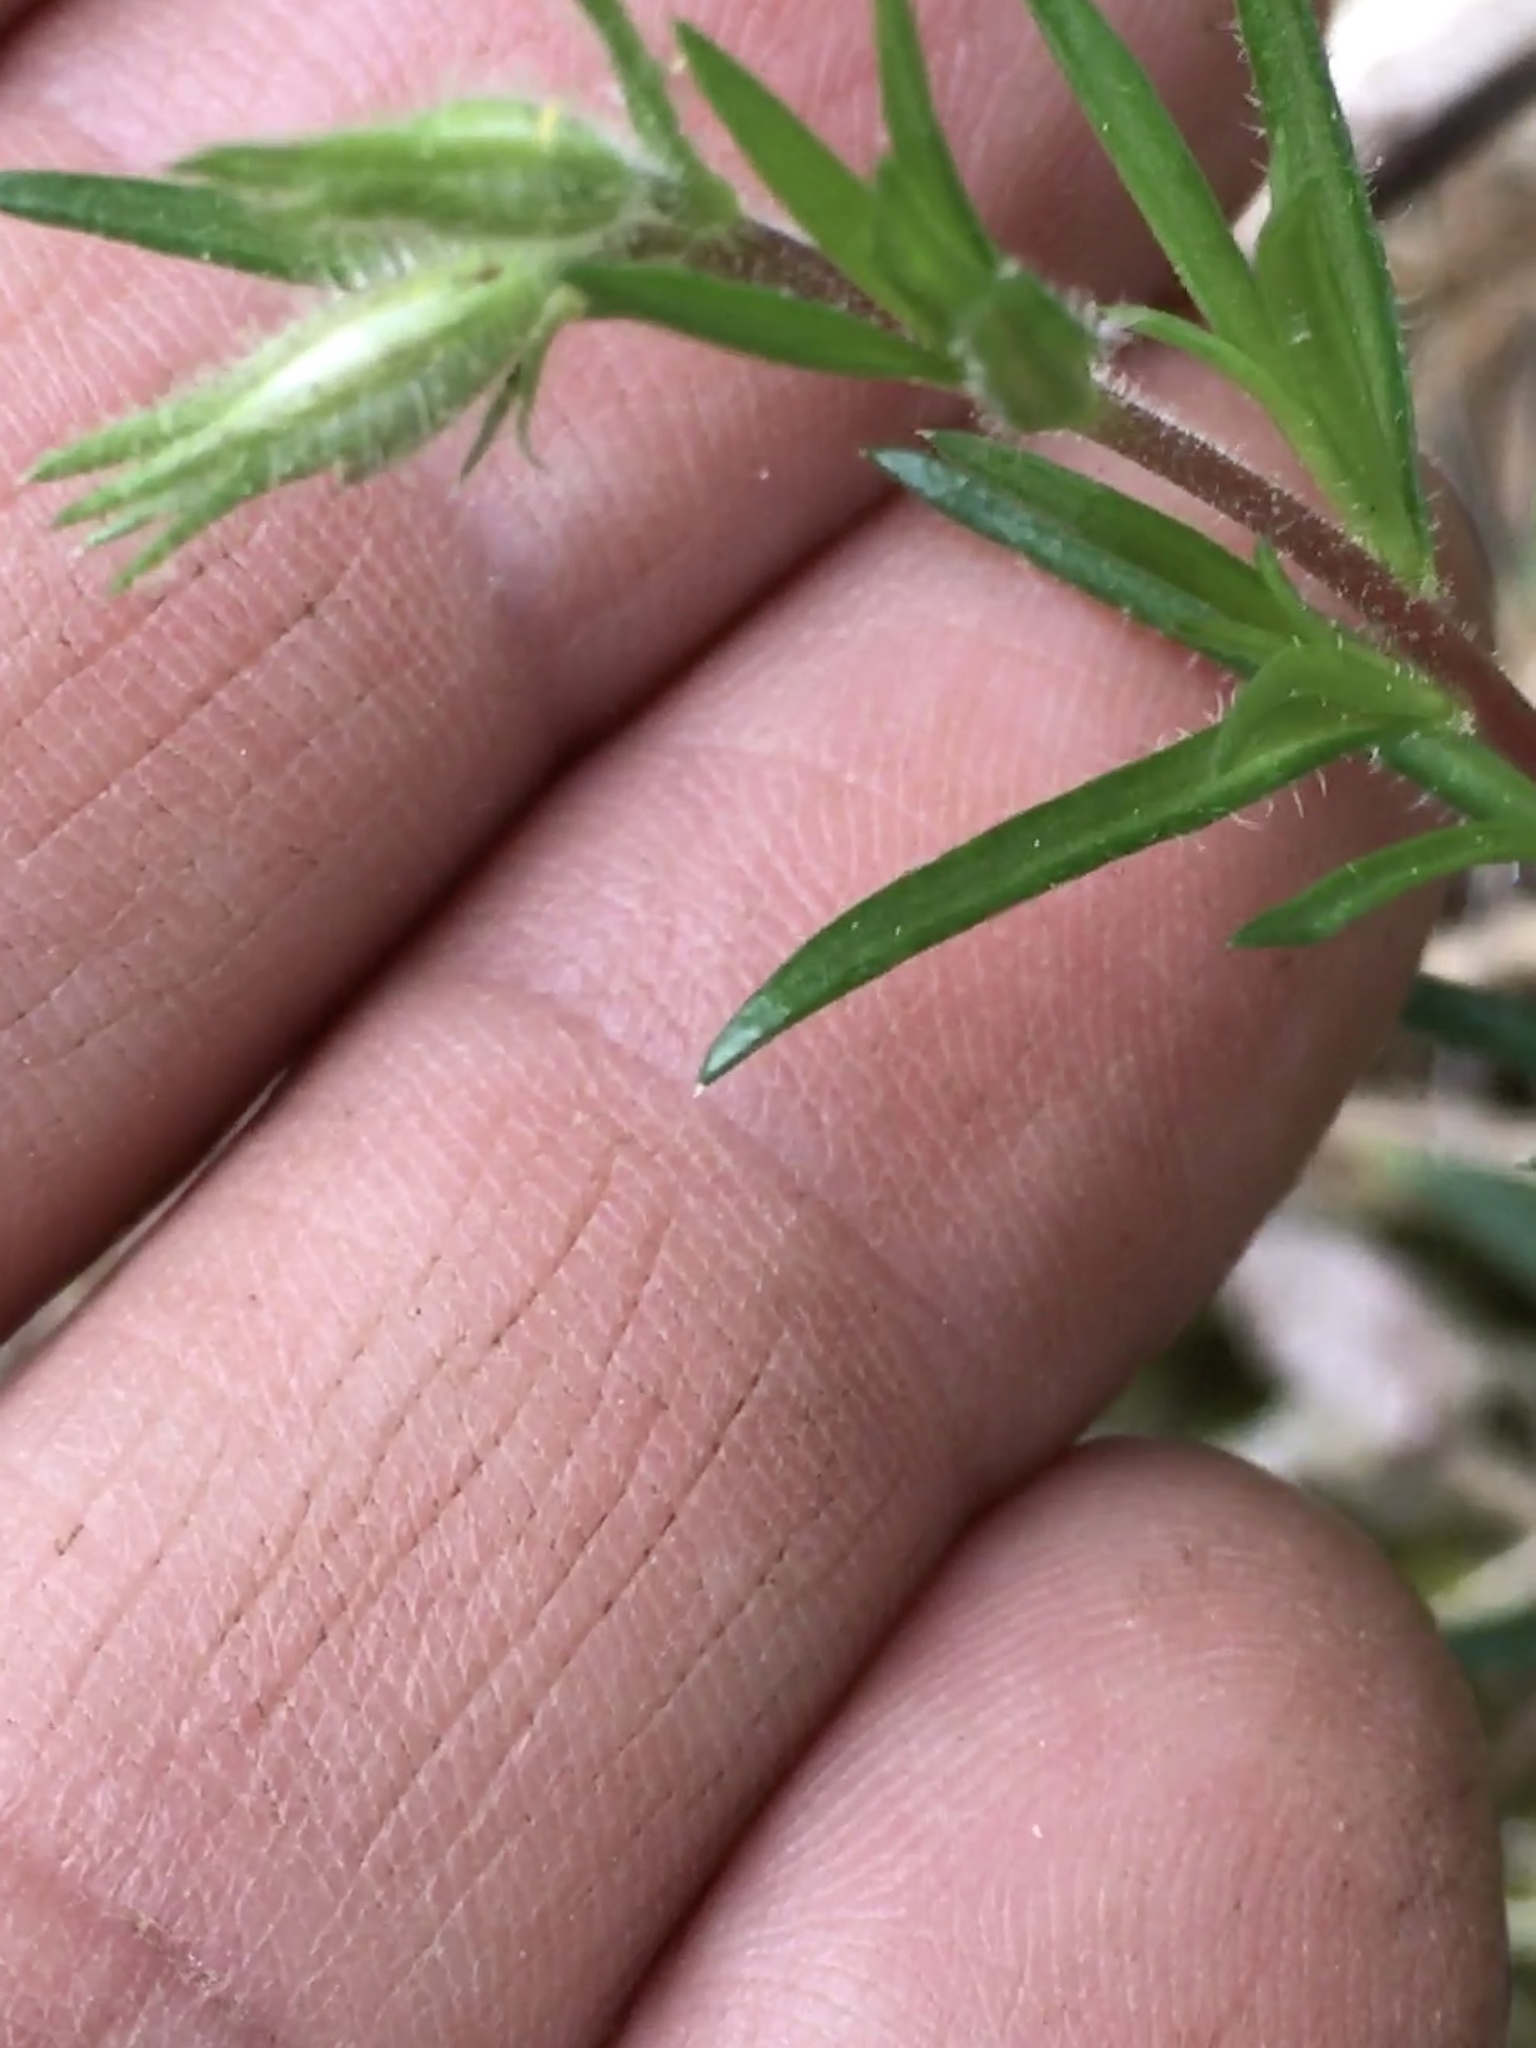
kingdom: Plantae
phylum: Tracheophyta
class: Magnoliopsida
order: Ericales
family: Polemoniaceae
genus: Phlox
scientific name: Phlox nivalis
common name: Trailing phlox
